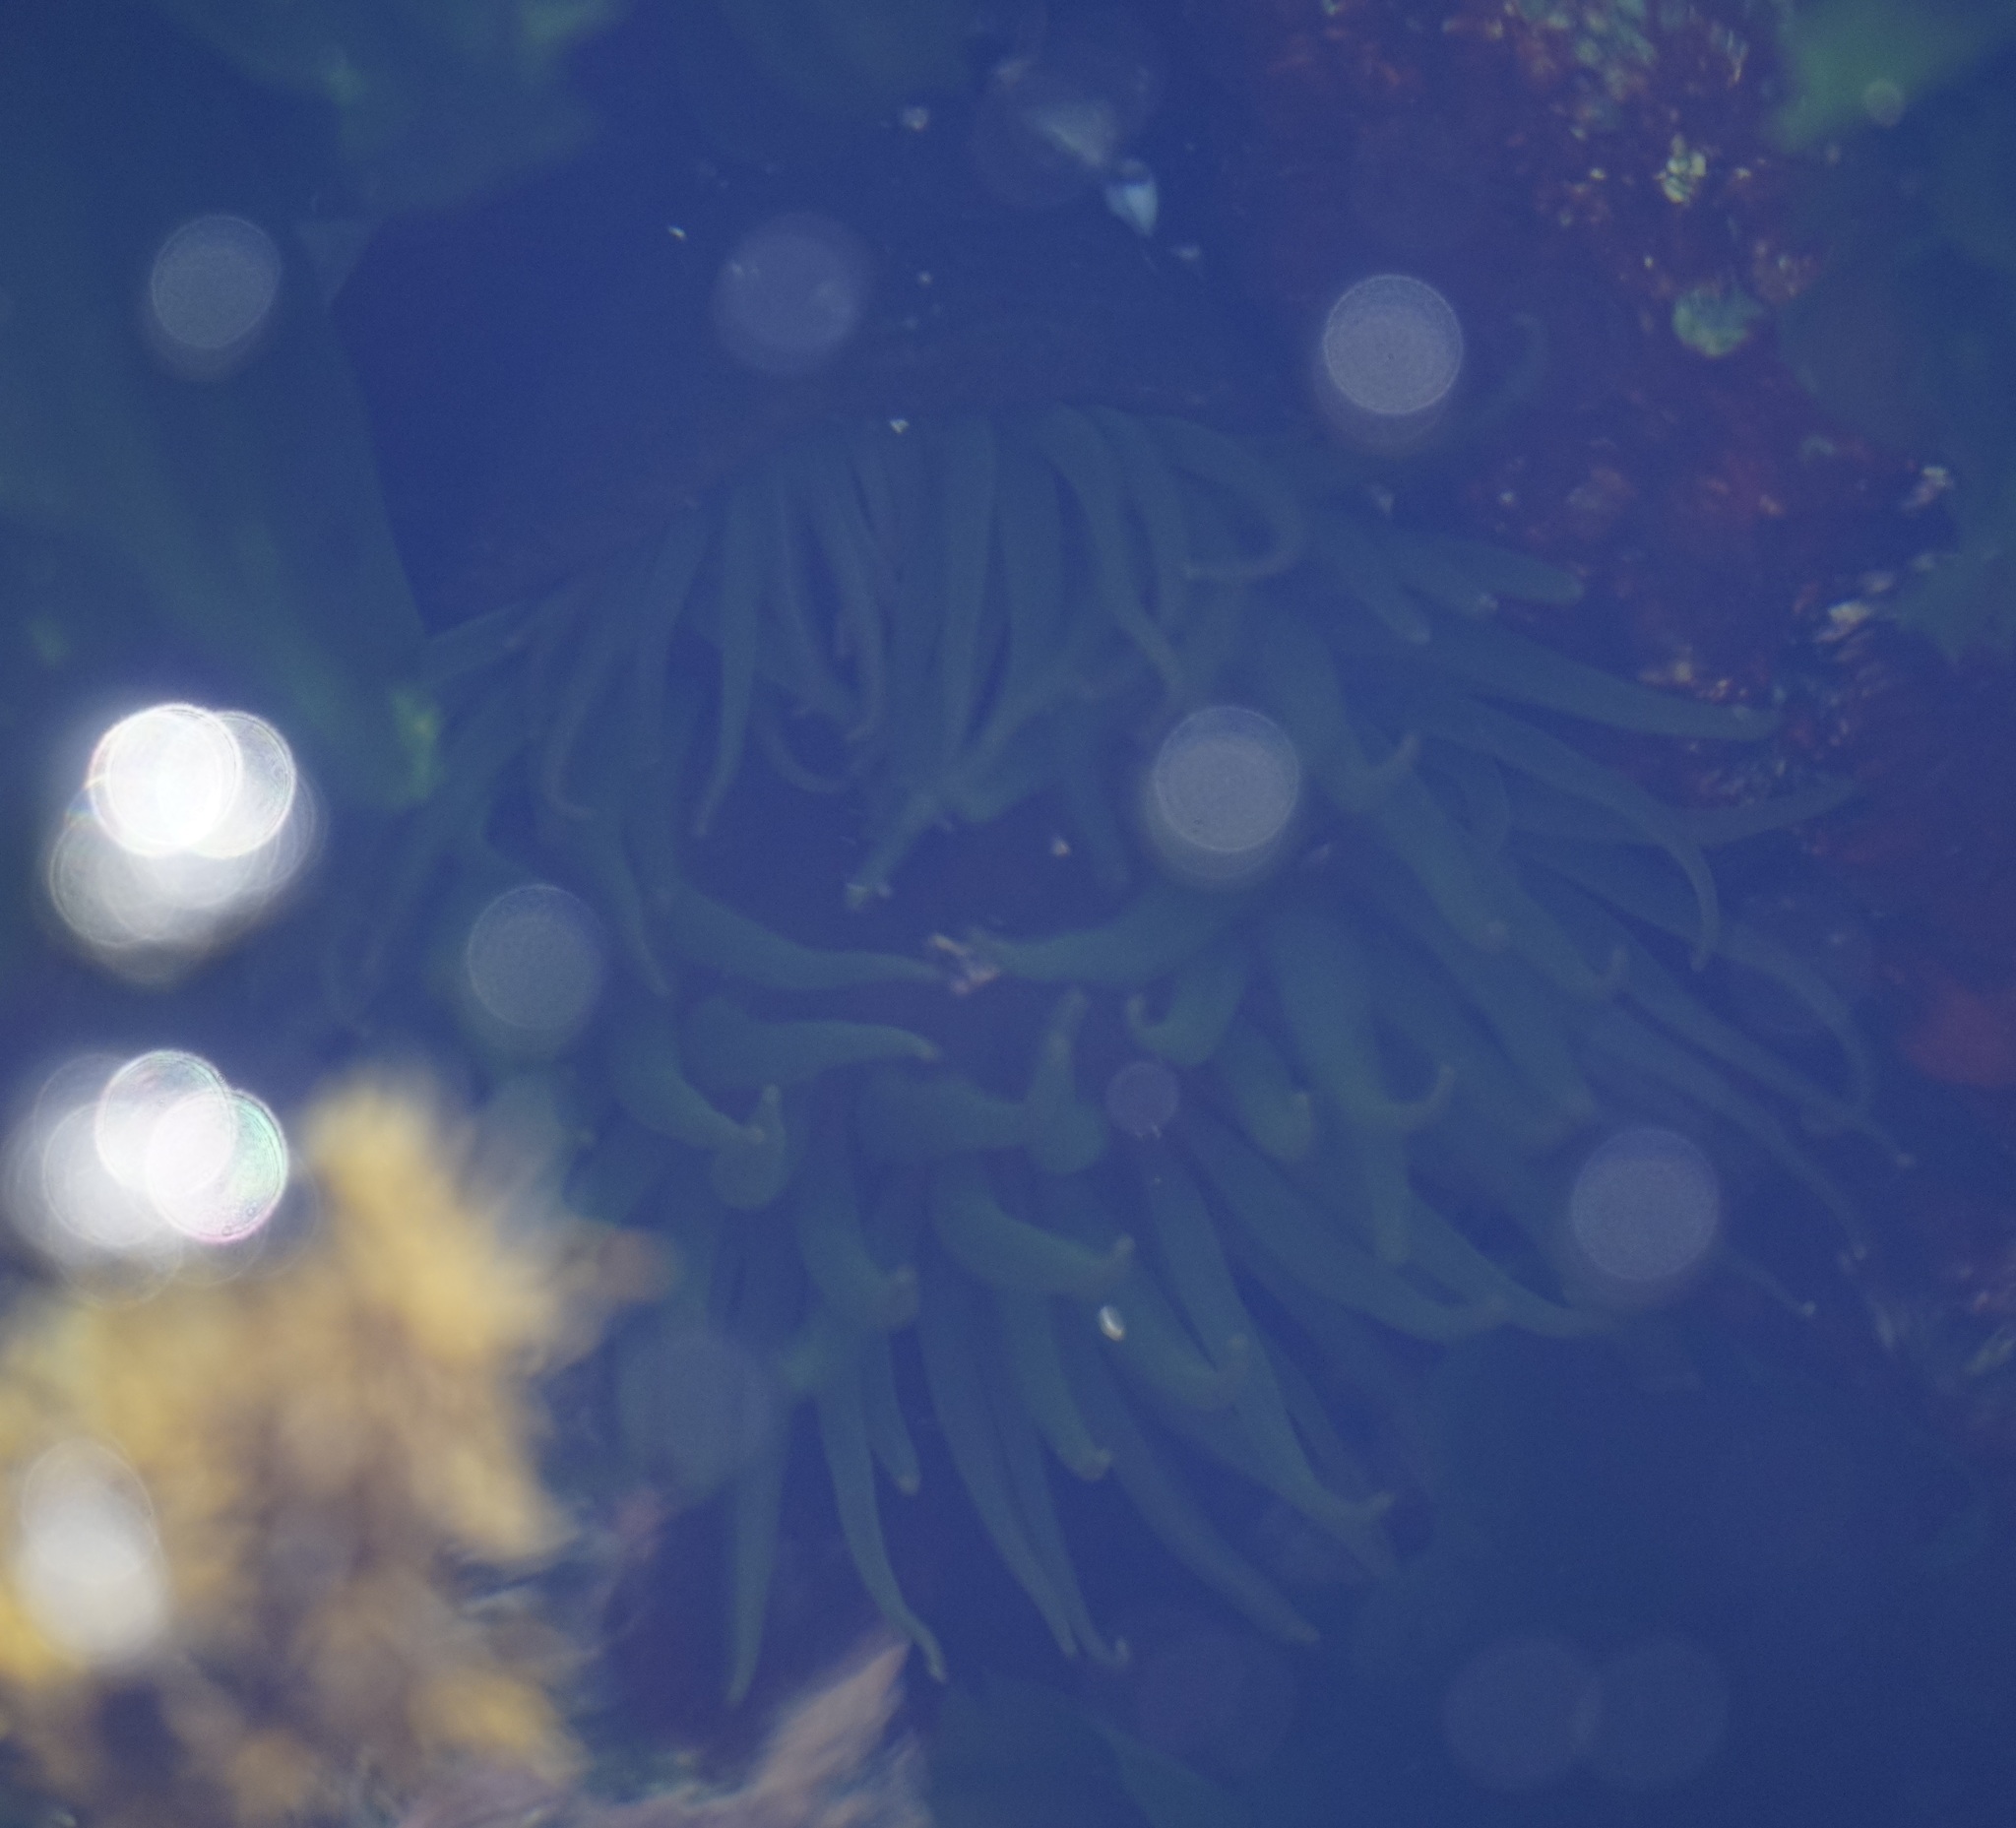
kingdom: Animalia
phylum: Cnidaria
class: Anthozoa
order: Actiniaria
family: Actiniidae
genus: Aulactinia
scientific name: Aulactinia veratra
